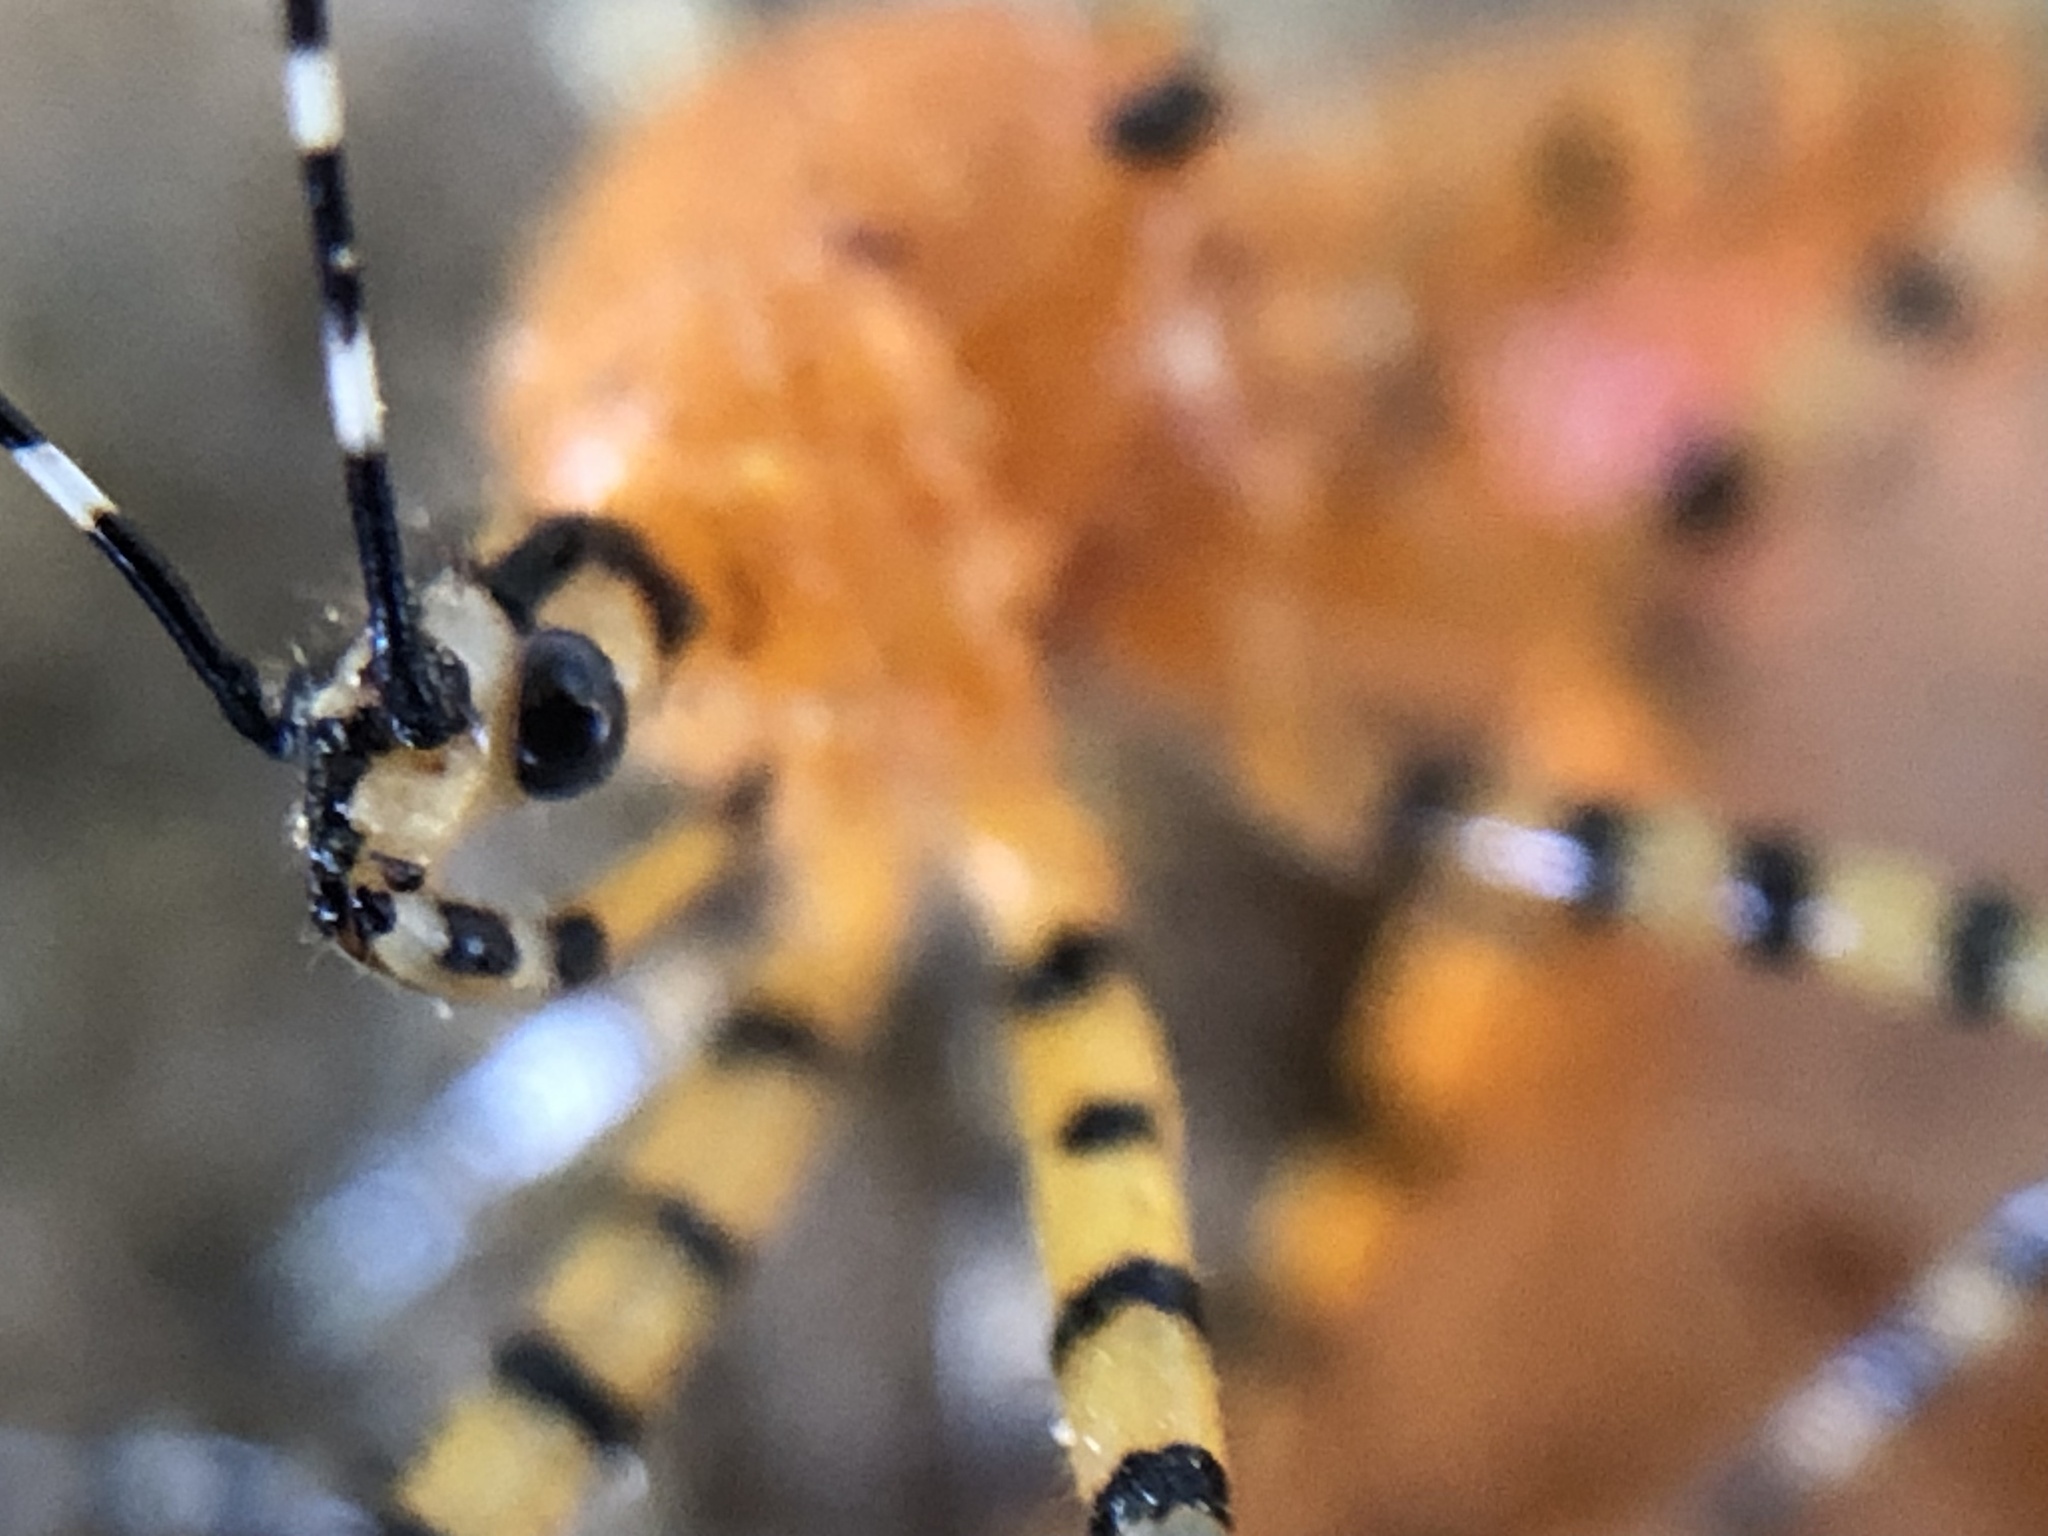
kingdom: Animalia
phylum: Arthropoda
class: Insecta
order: Hemiptera
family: Reduviidae
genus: Pselliopus
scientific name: Pselliopus barberi
